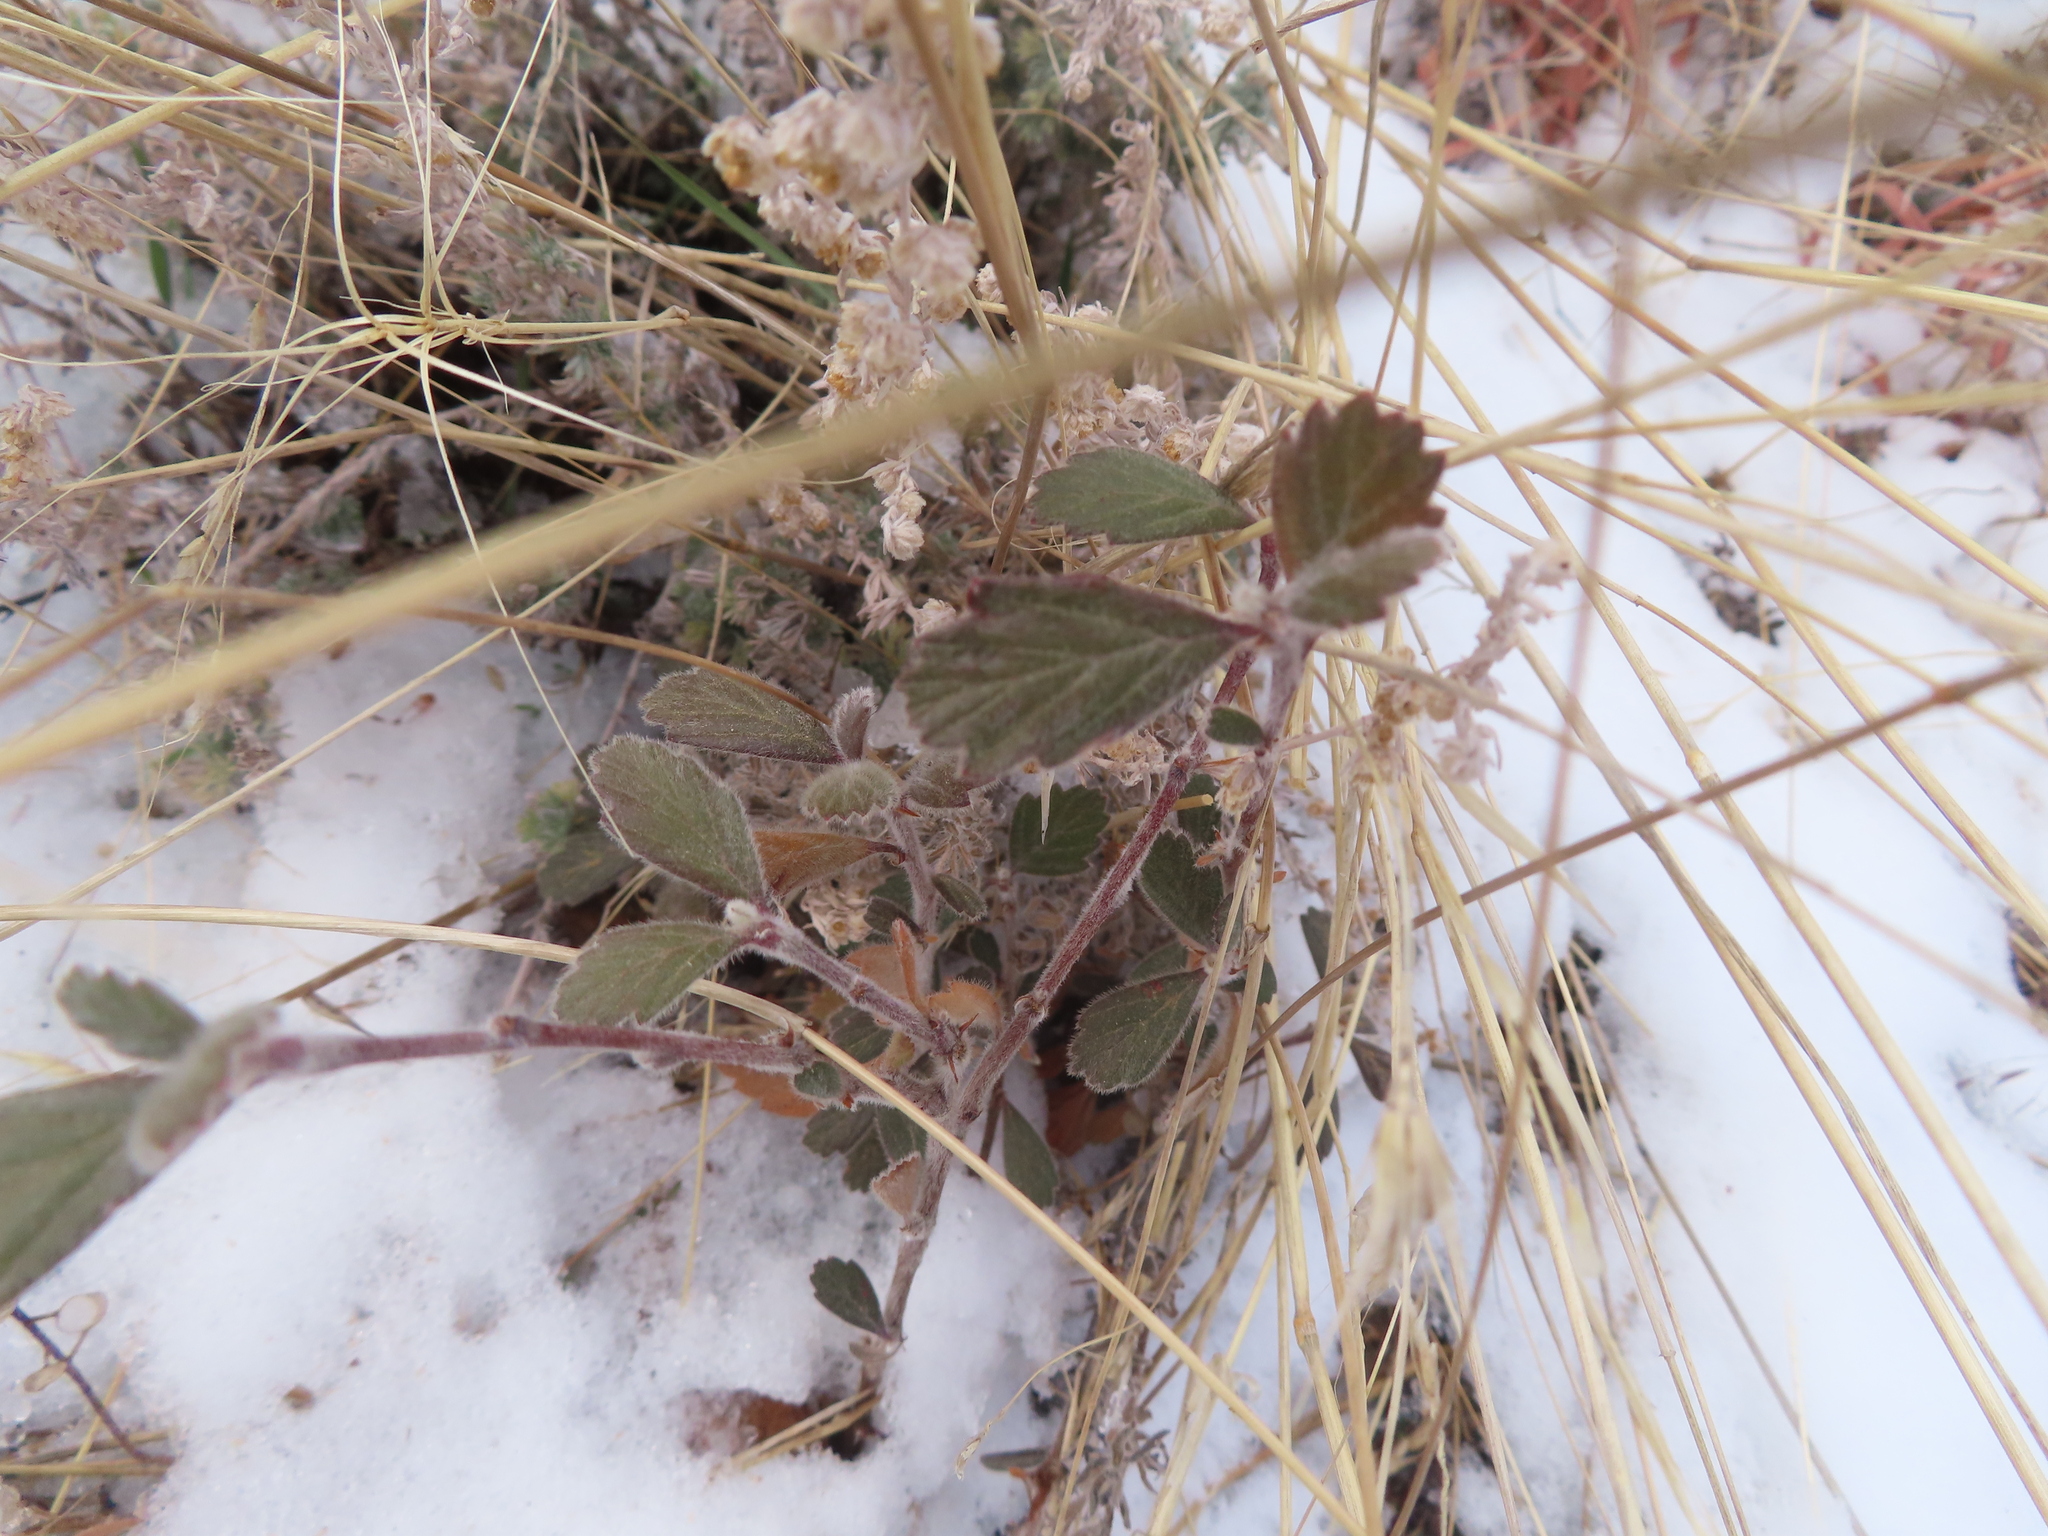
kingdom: Plantae
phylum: Tracheophyta
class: Magnoliopsida
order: Rosales
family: Rosaceae
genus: Cercocarpus
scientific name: Cercocarpus montanus
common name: Alder-leaf cercocarpus
